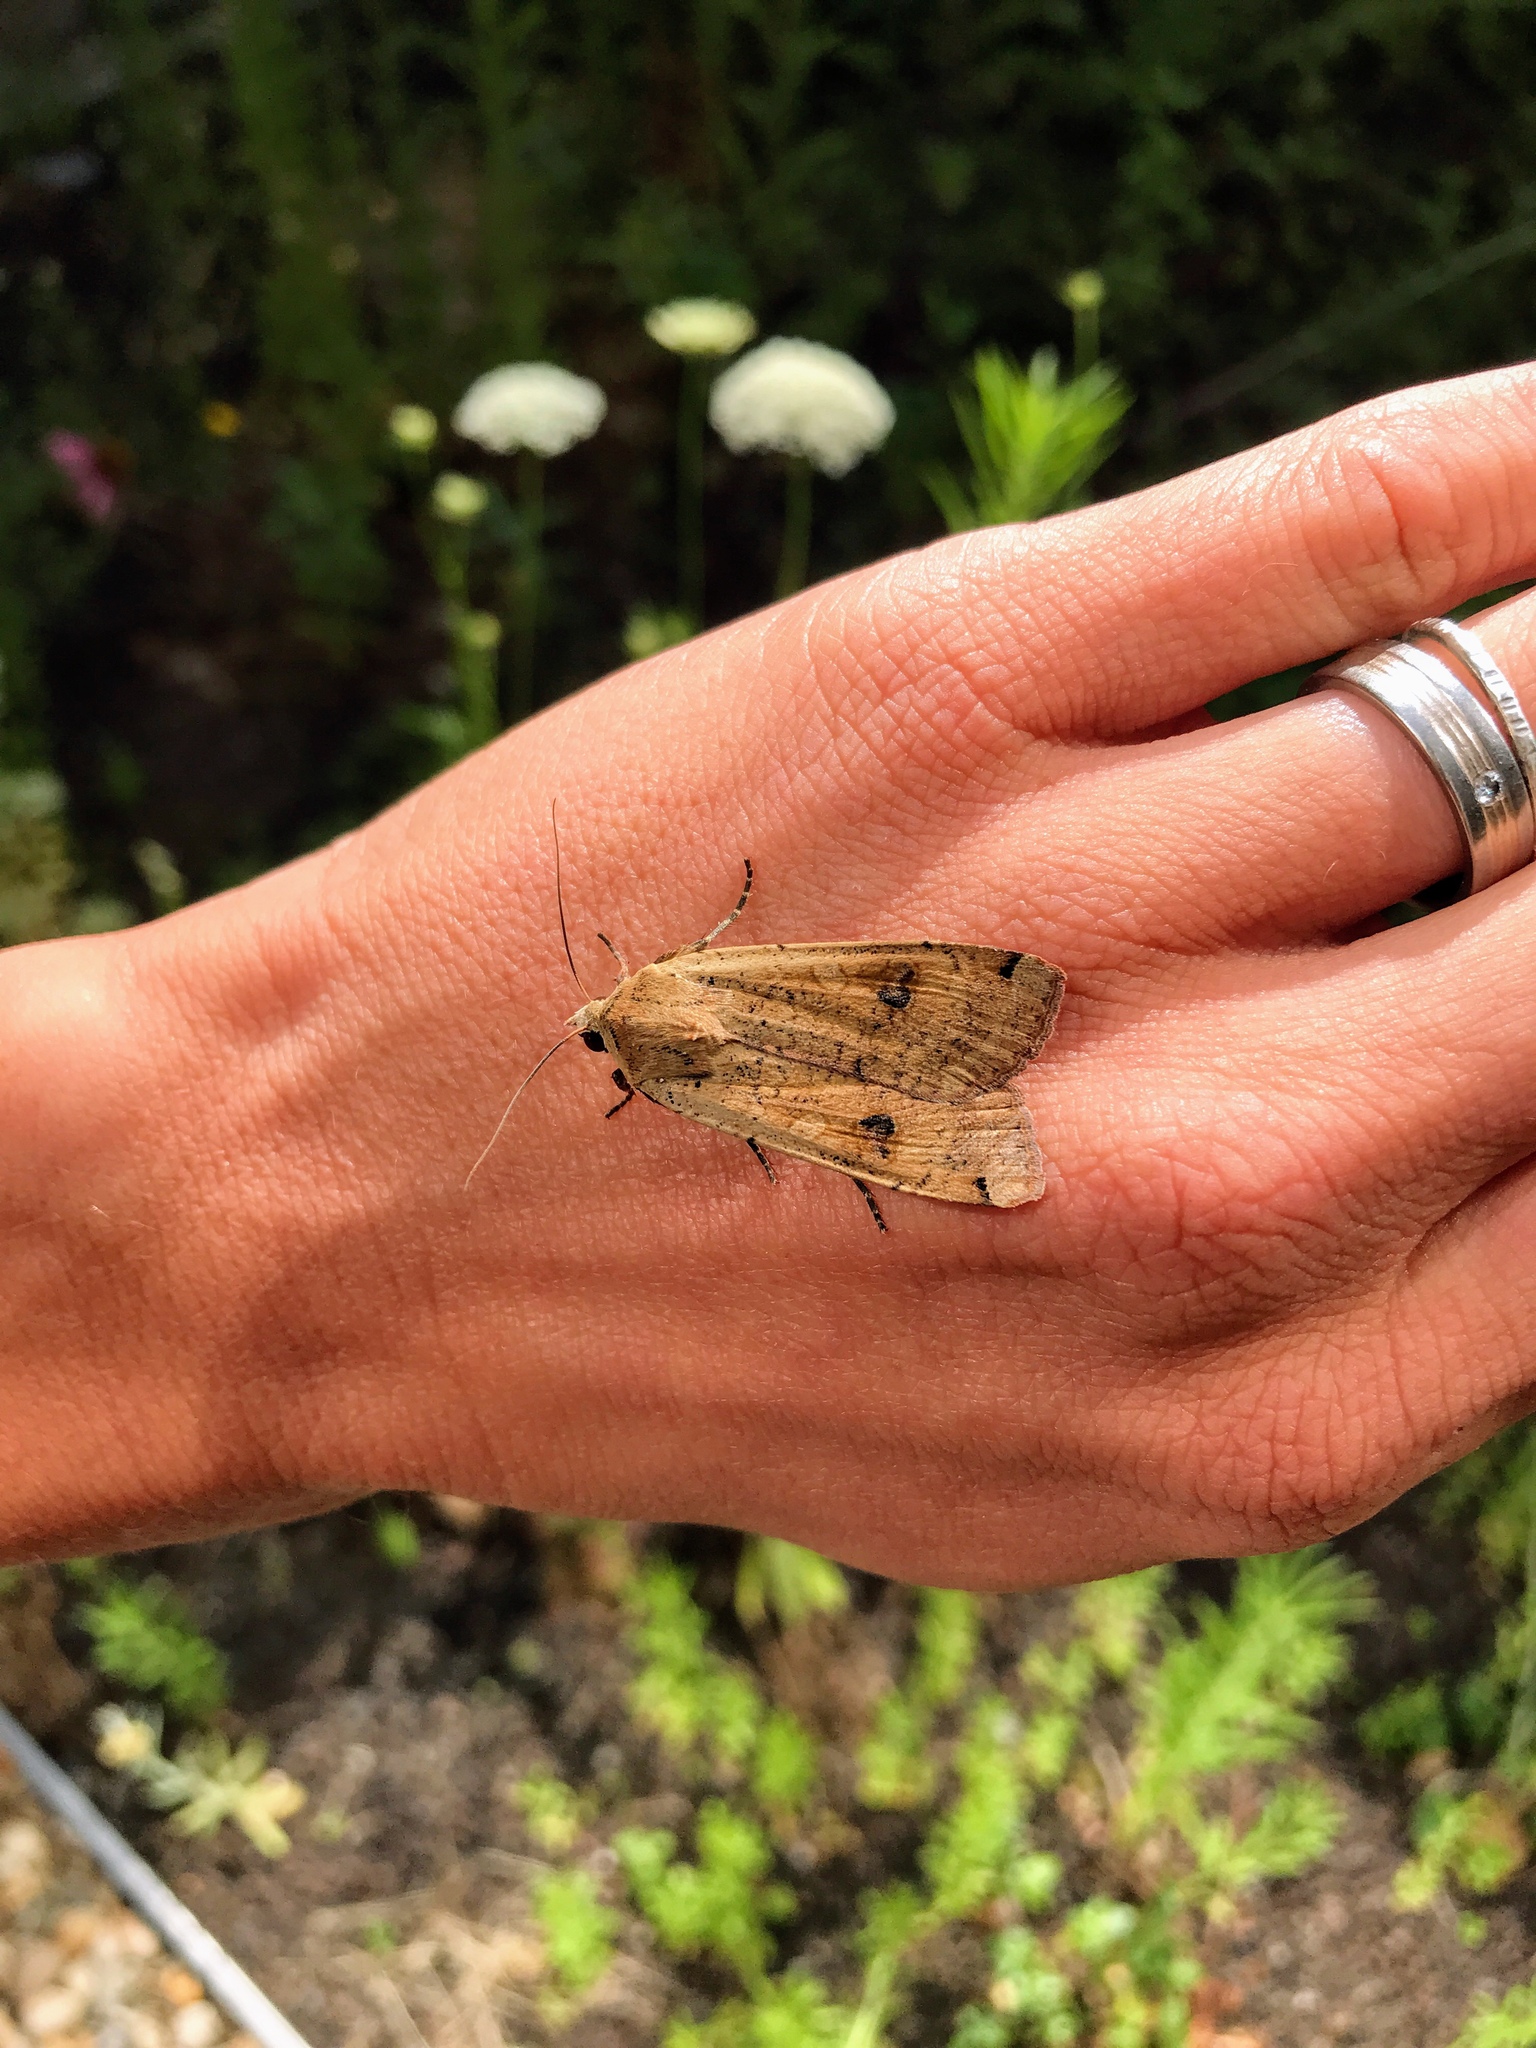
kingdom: Animalia
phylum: Arthropoda
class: Insecta
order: Lepidoptera
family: Noctuidae
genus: Noctua
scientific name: Noctua pronuba
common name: Large yellow underwing
